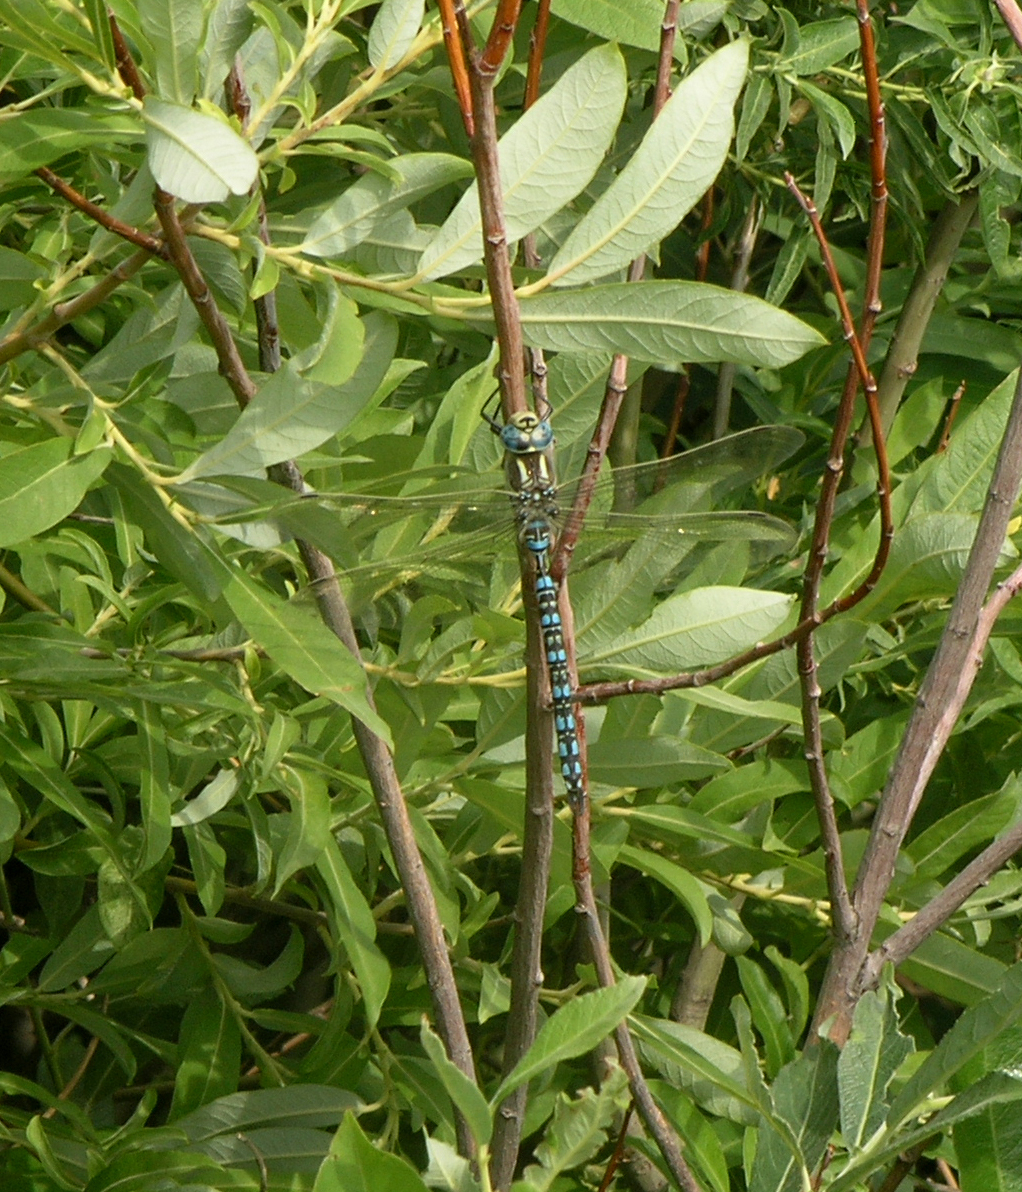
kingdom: Animalia
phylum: Arthropoda
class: Insecta
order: Odonata
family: Aeshnidae
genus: Aeshna
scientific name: Aeshna serrata
